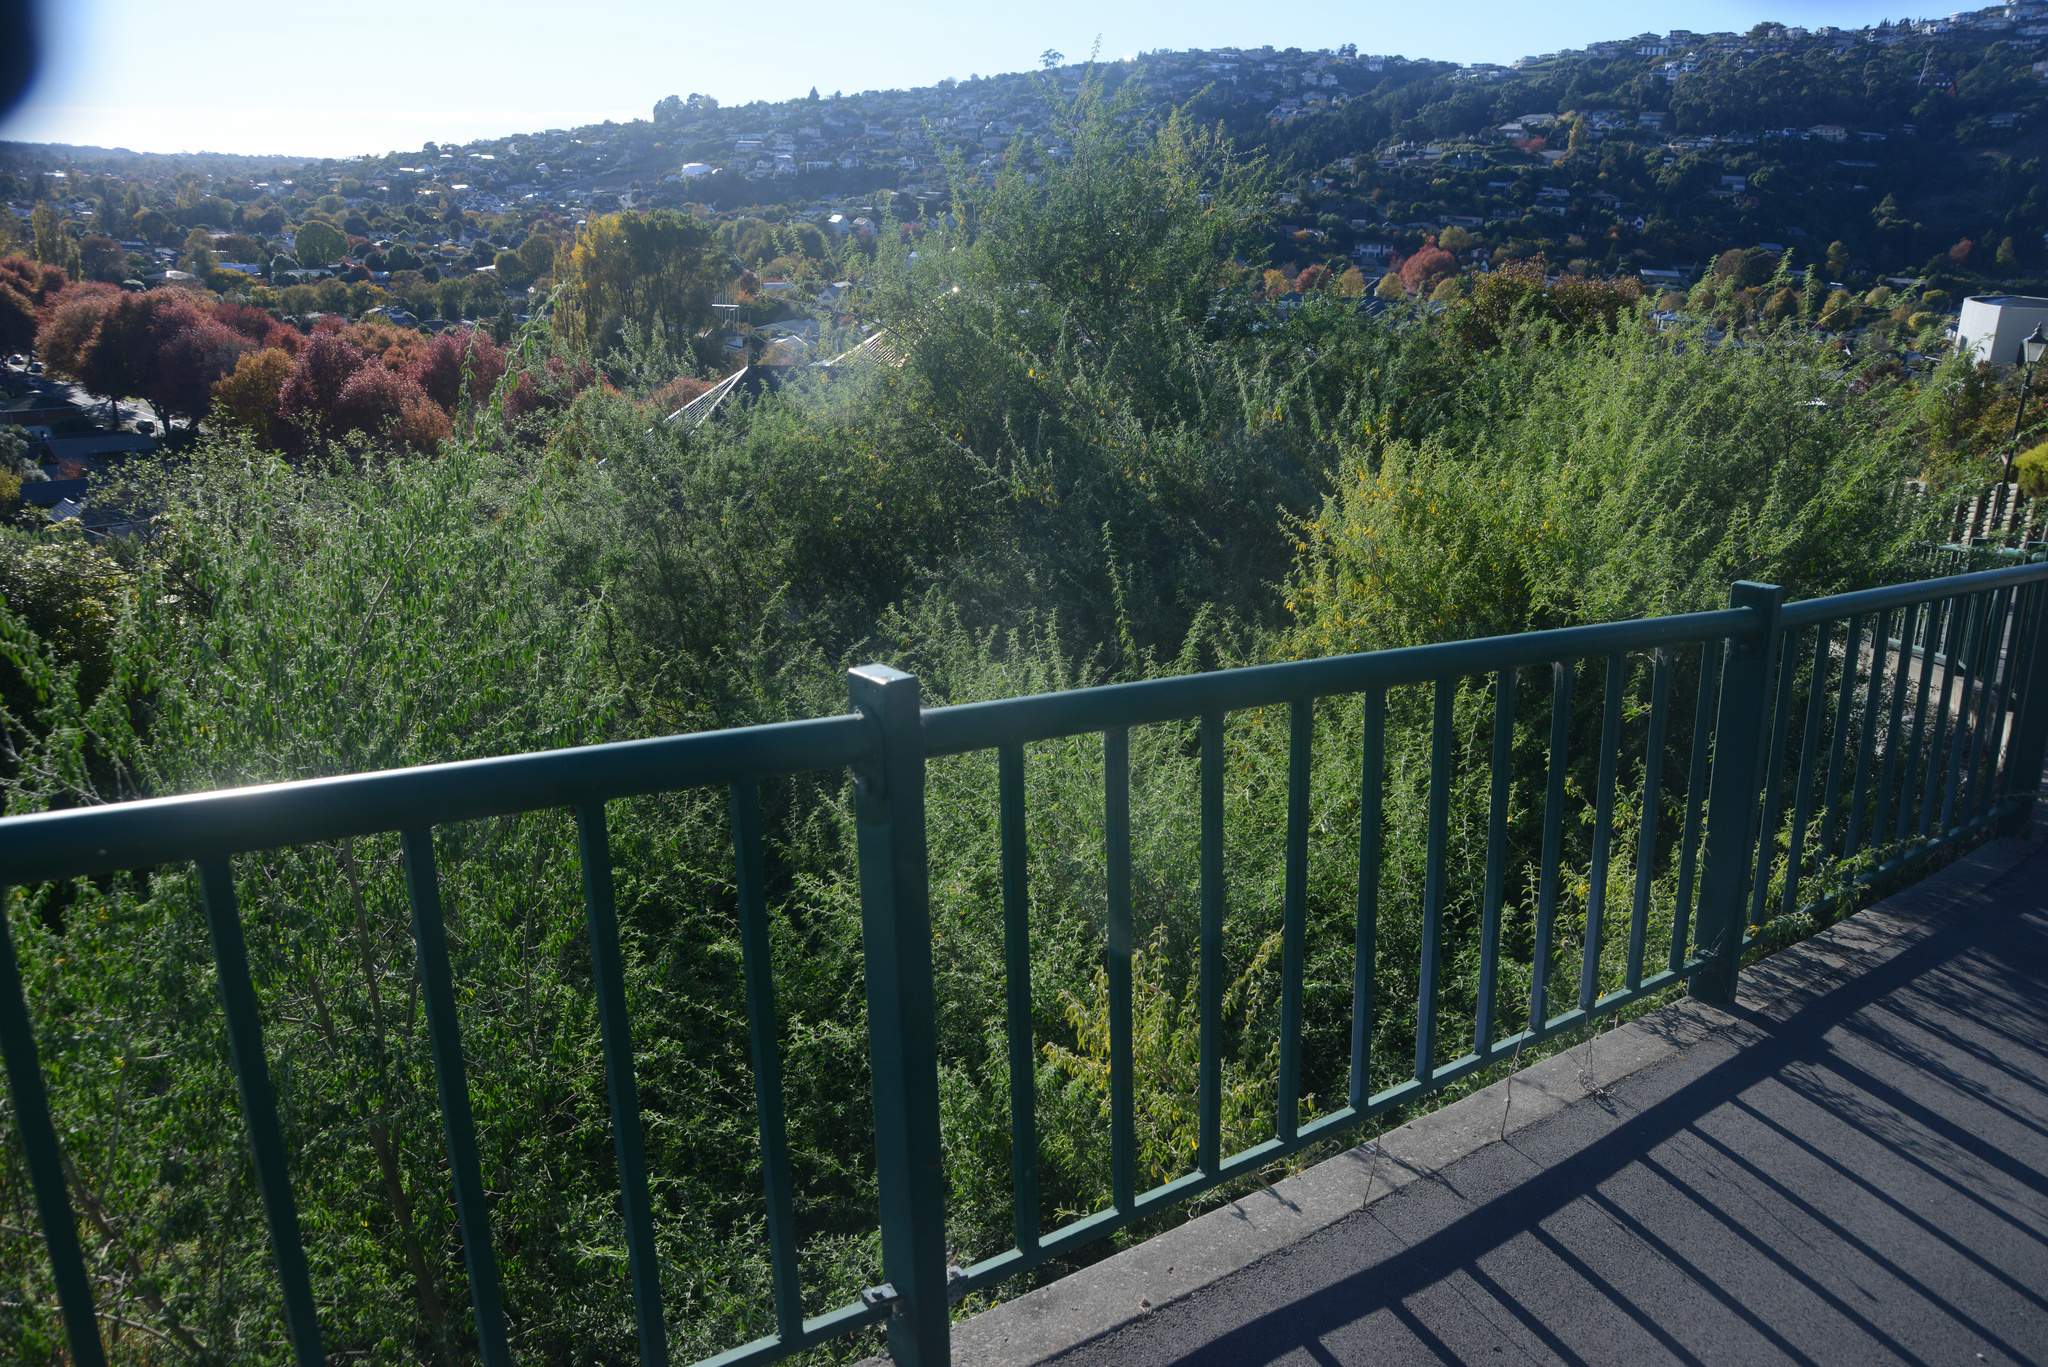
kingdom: Plantae
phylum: Tracheophyta
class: Magnoliopsida
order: Fabales
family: Fabaceae
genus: Chamaecytisus
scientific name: Chamaecytisus prolifer
